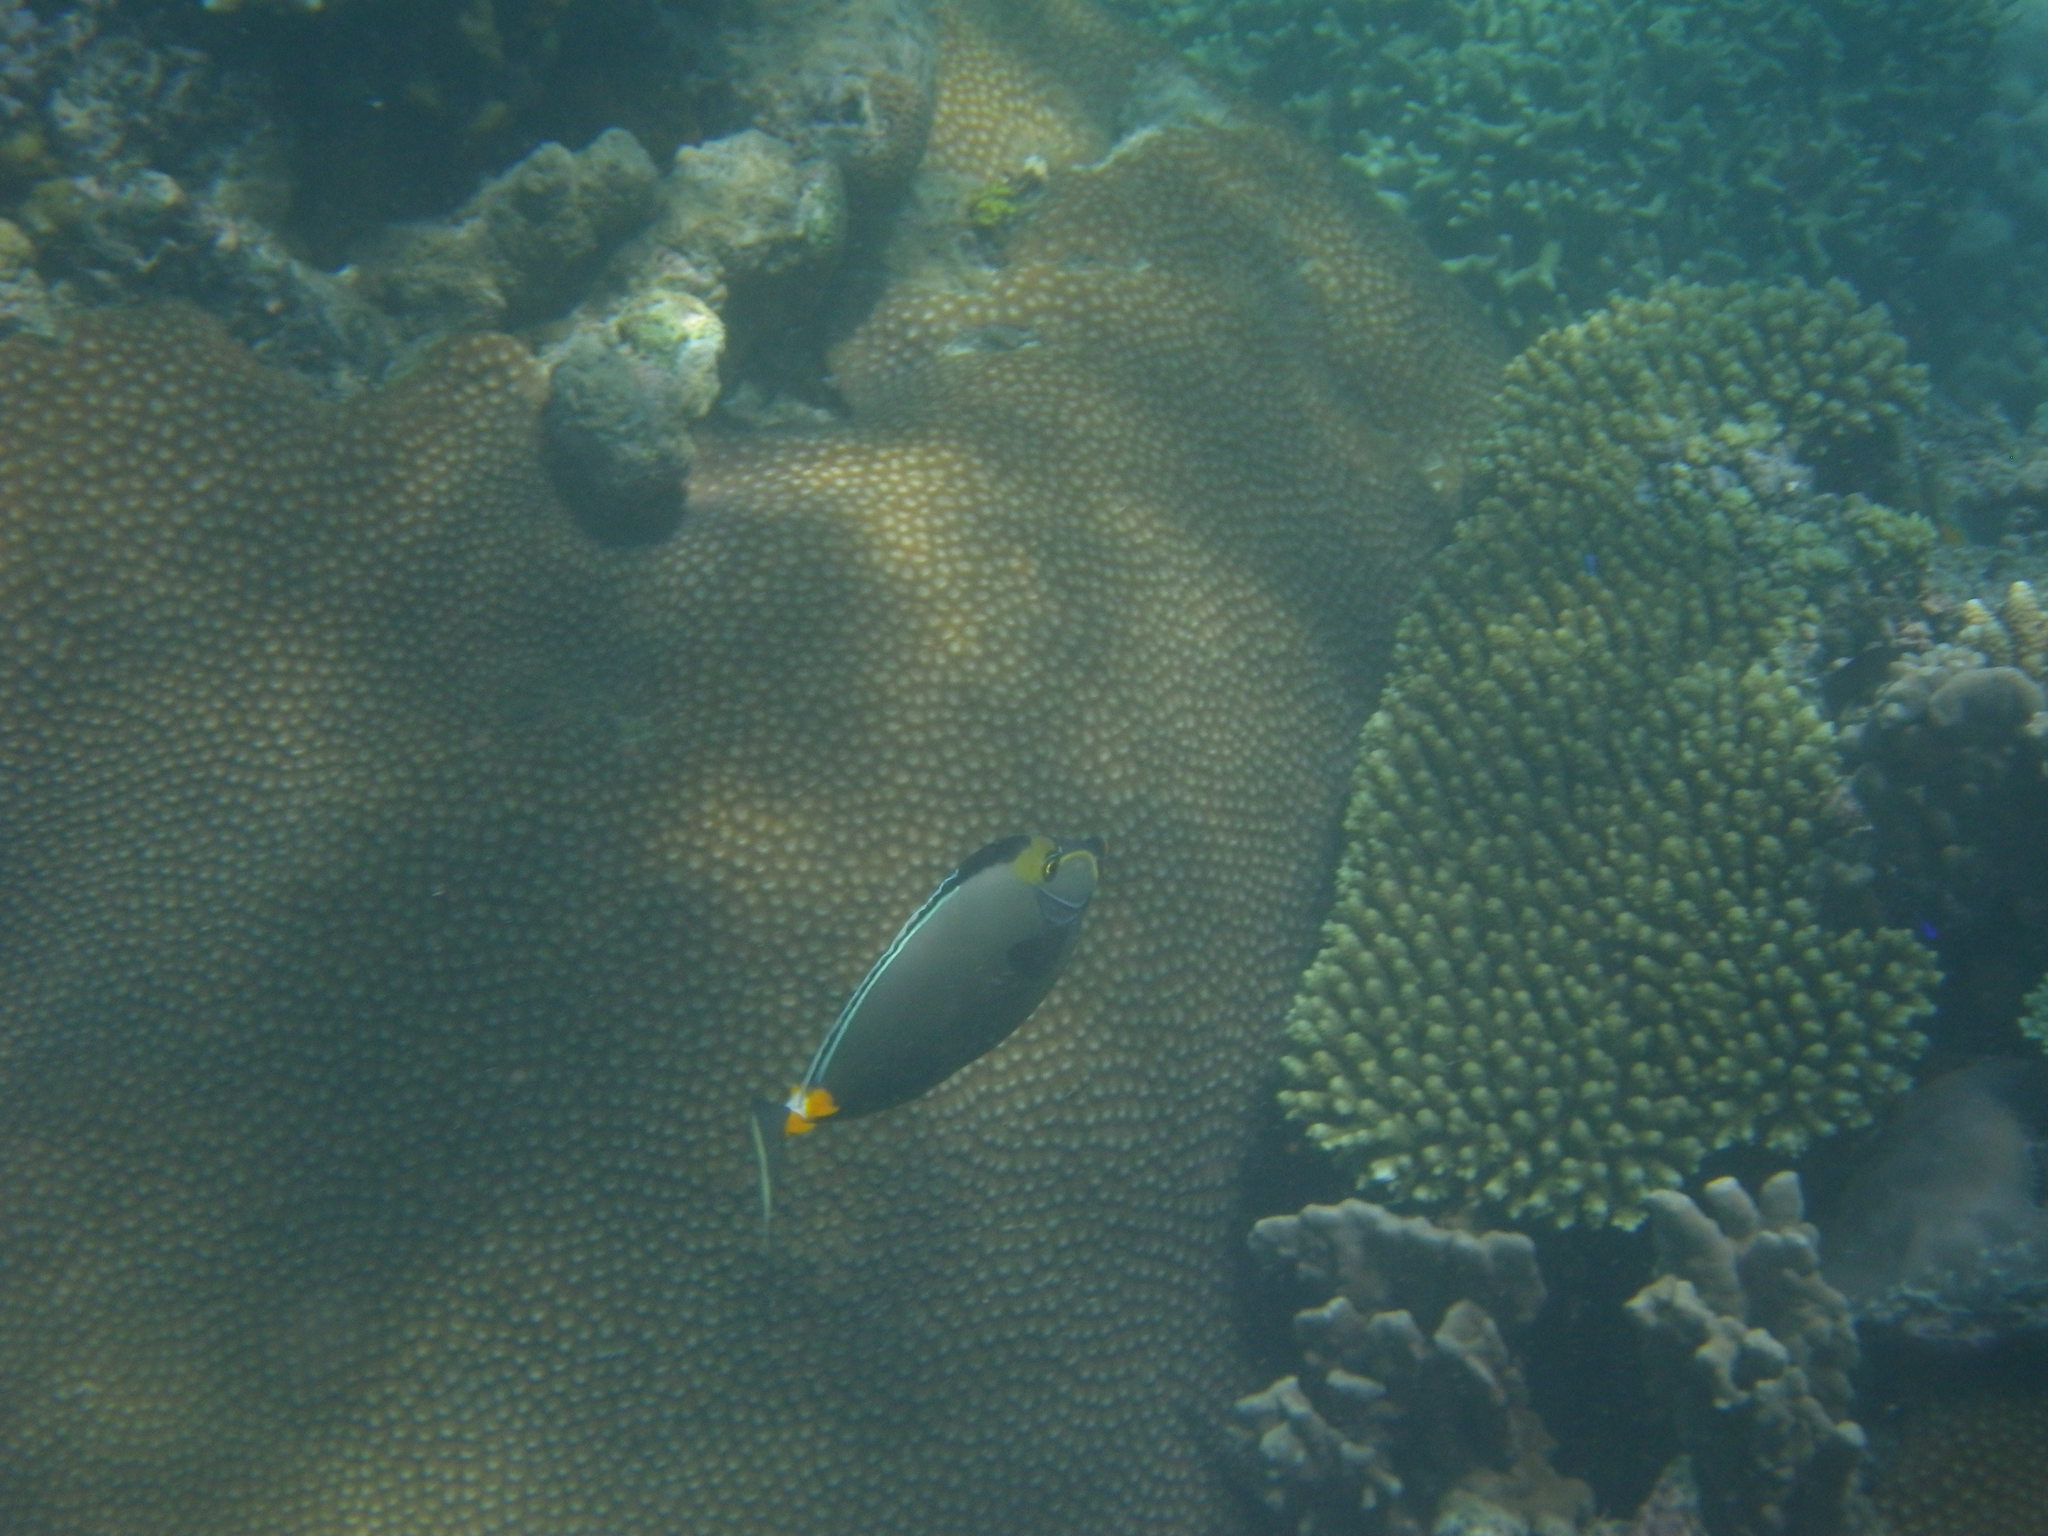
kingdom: Animalia
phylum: Chordata
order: Perciformes
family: Acanthuridae
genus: Naso
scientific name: Naso lituratus
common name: Orangespine unicornfish
